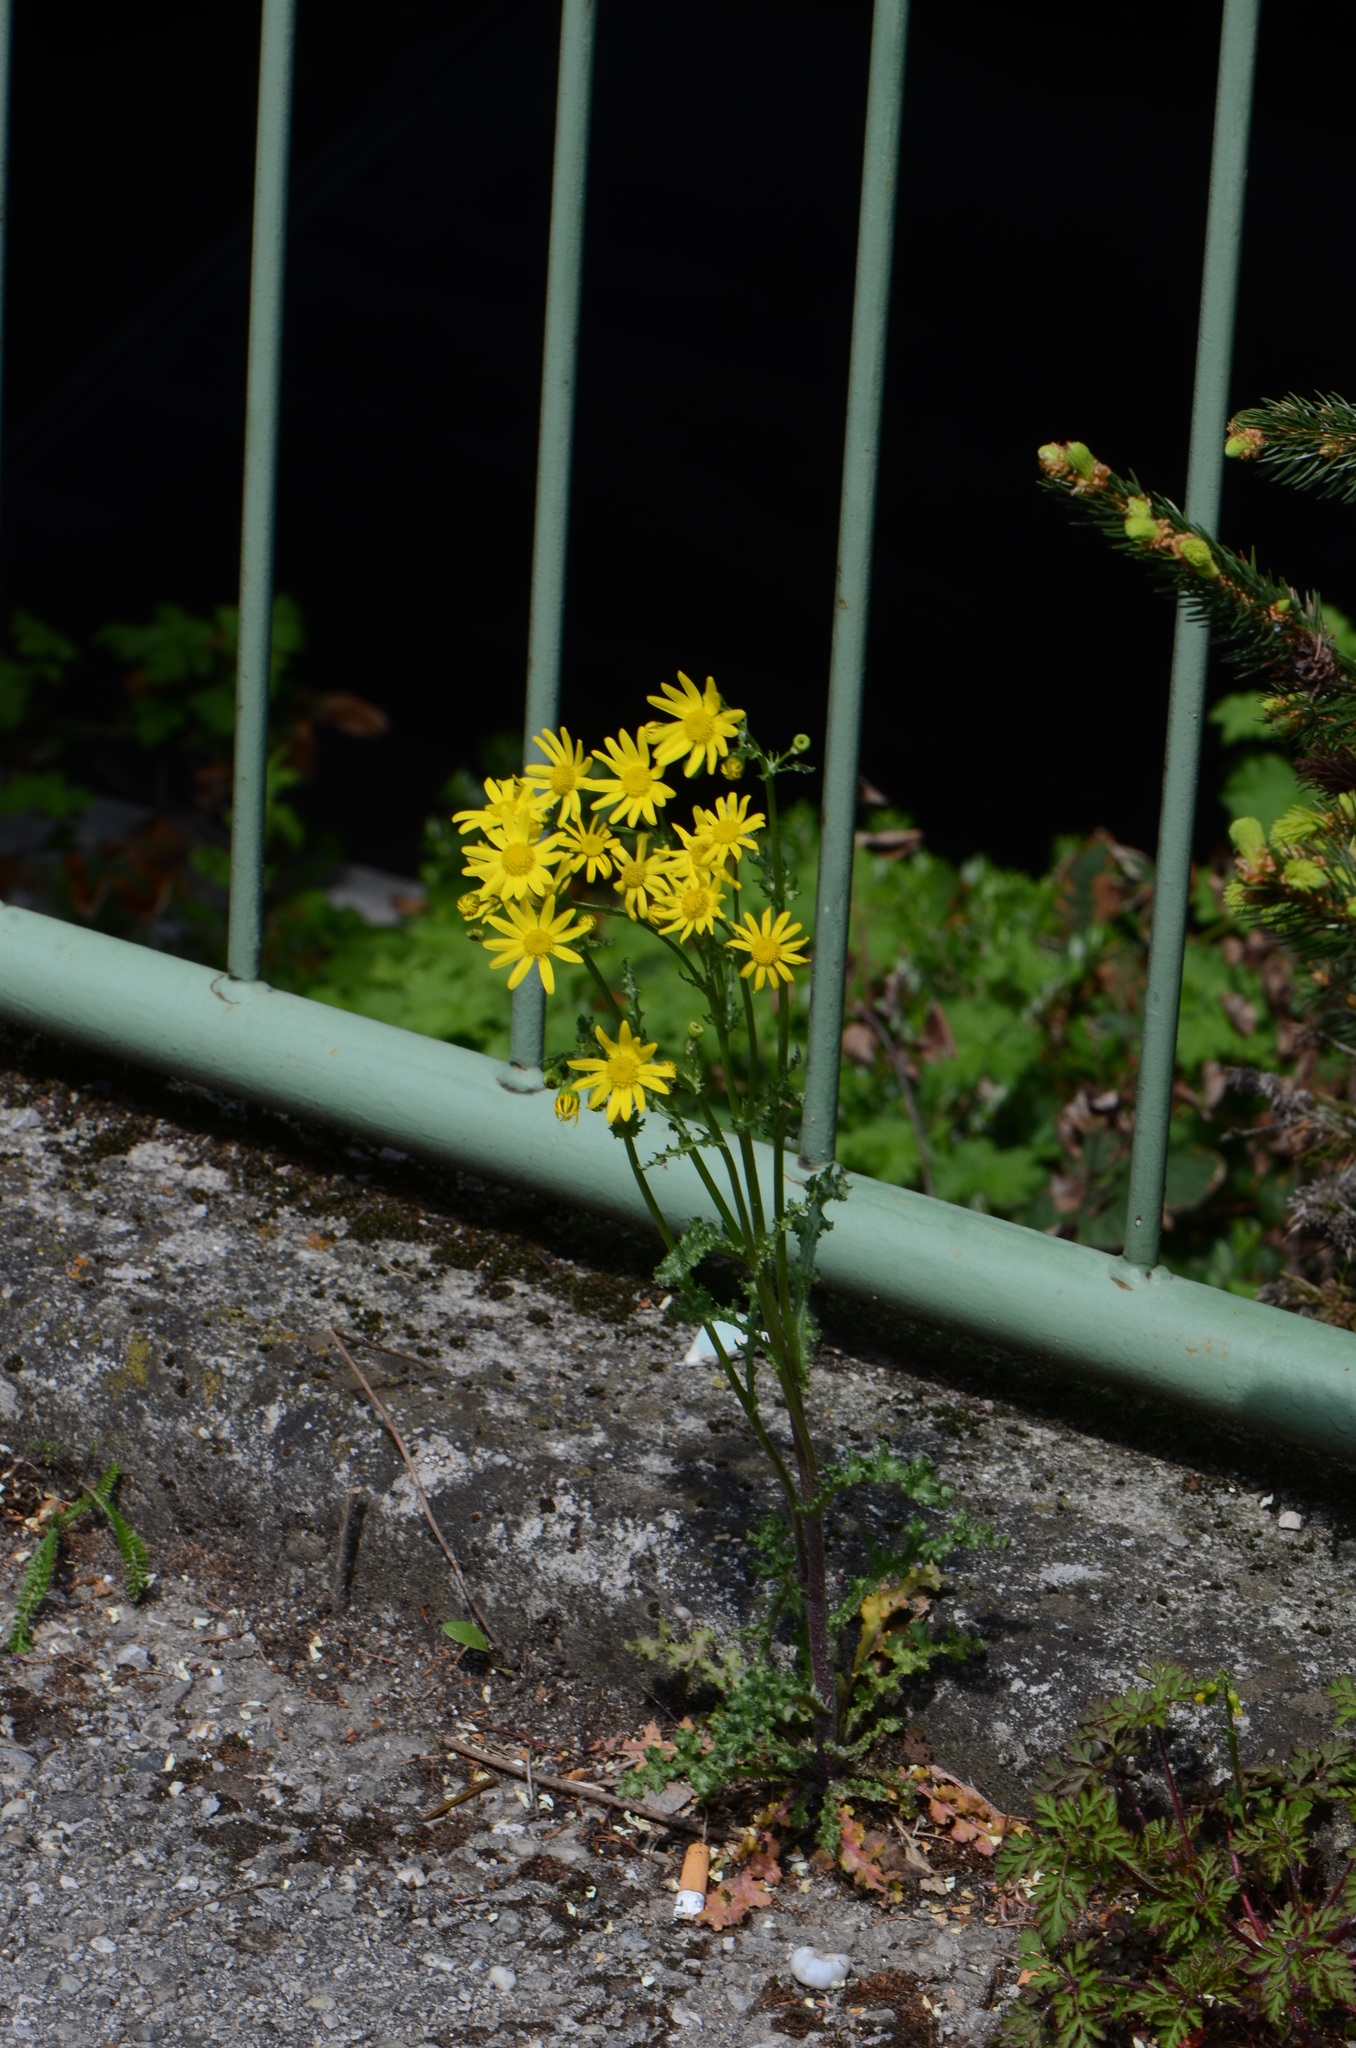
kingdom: Plantae
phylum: Tracheophyta
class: Magnoliopsida
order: Asterales
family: Asteraceae
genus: Senecio
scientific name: Senecio vernalis
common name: Eastern groundsel
